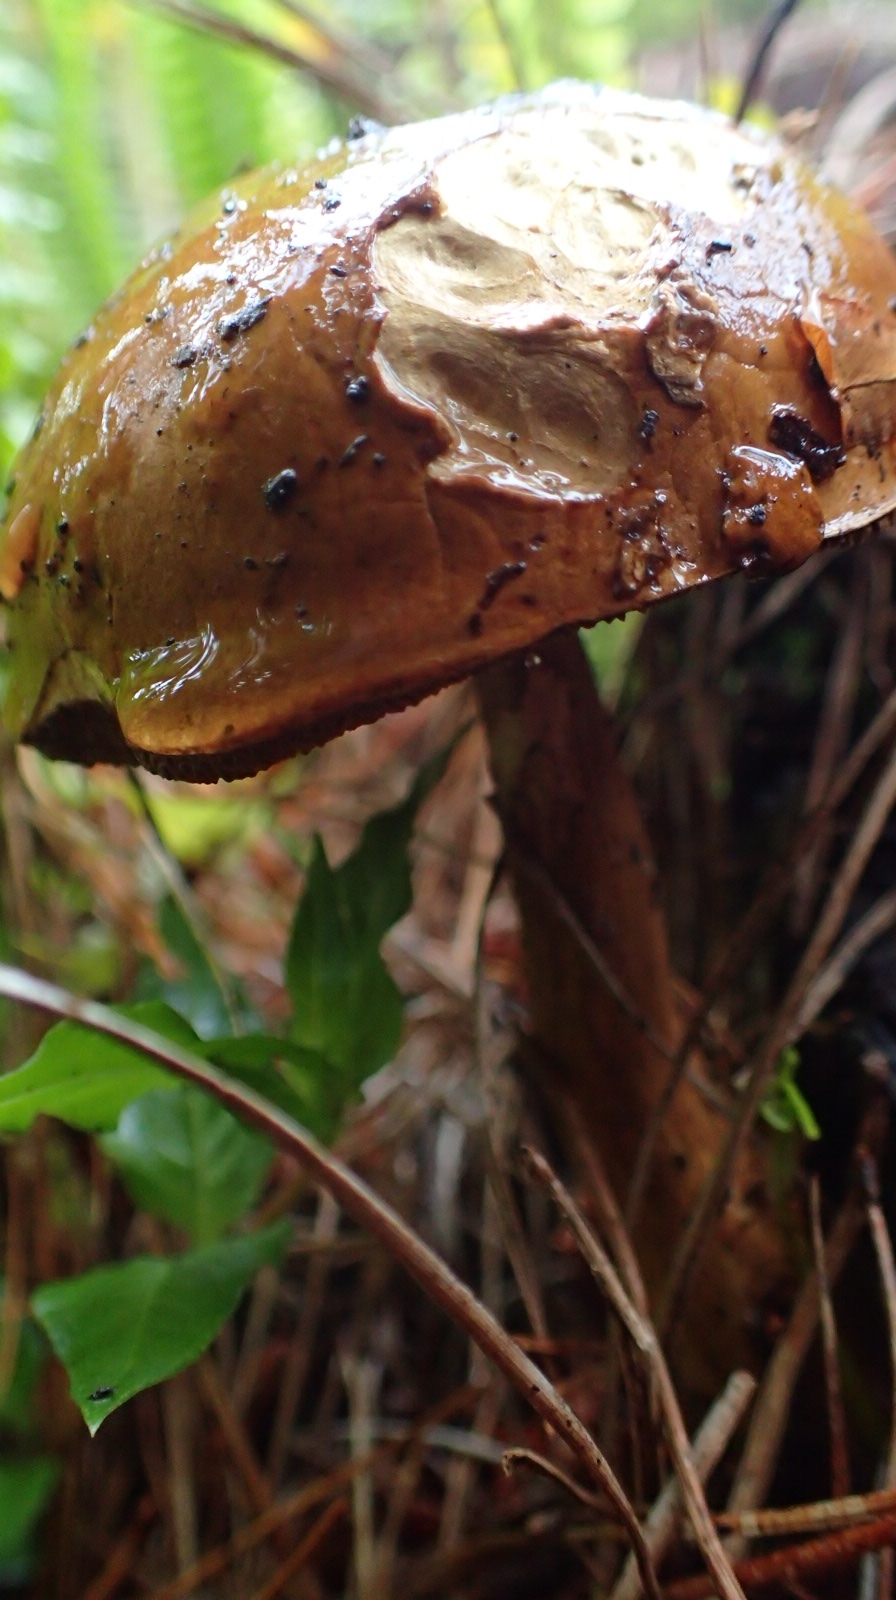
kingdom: Fungi
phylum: Basidiomycota
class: Agaricomycetes
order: Boletales
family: Boletaceae
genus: Imleria
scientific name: Imleria badia
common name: Bay bolete
